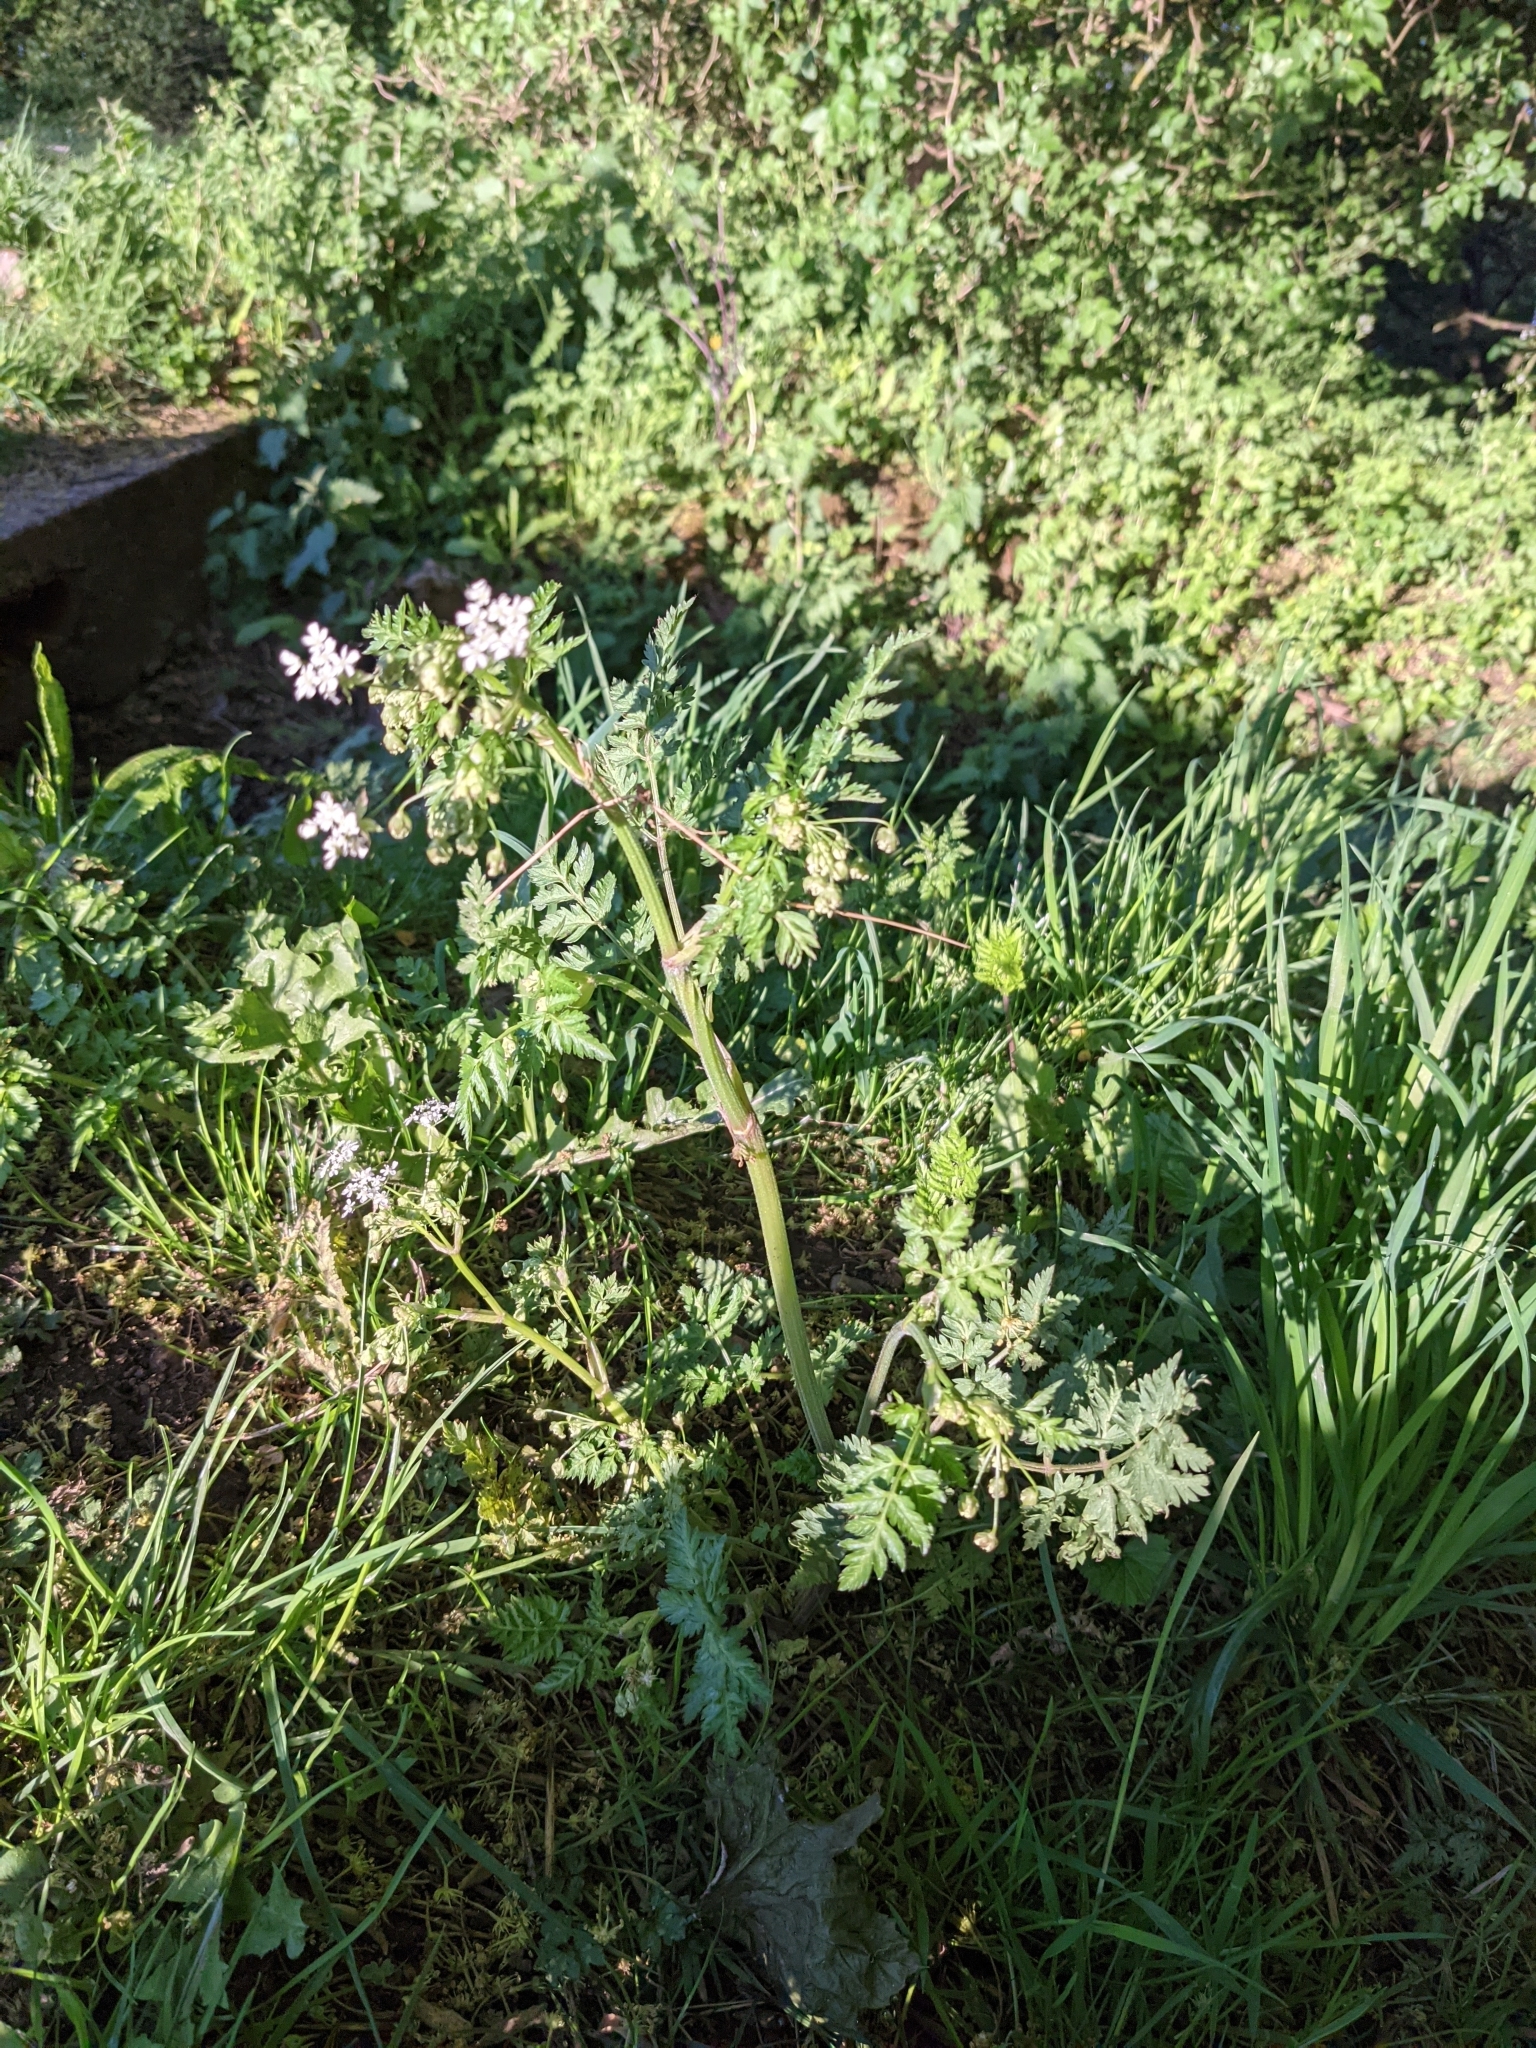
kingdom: Plantae
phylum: Tracheophyta
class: Magnoliopsida
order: Apiales
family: Apiaceae
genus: Anthriscus
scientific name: Anthriscus sylvestris
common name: Cow parsley
